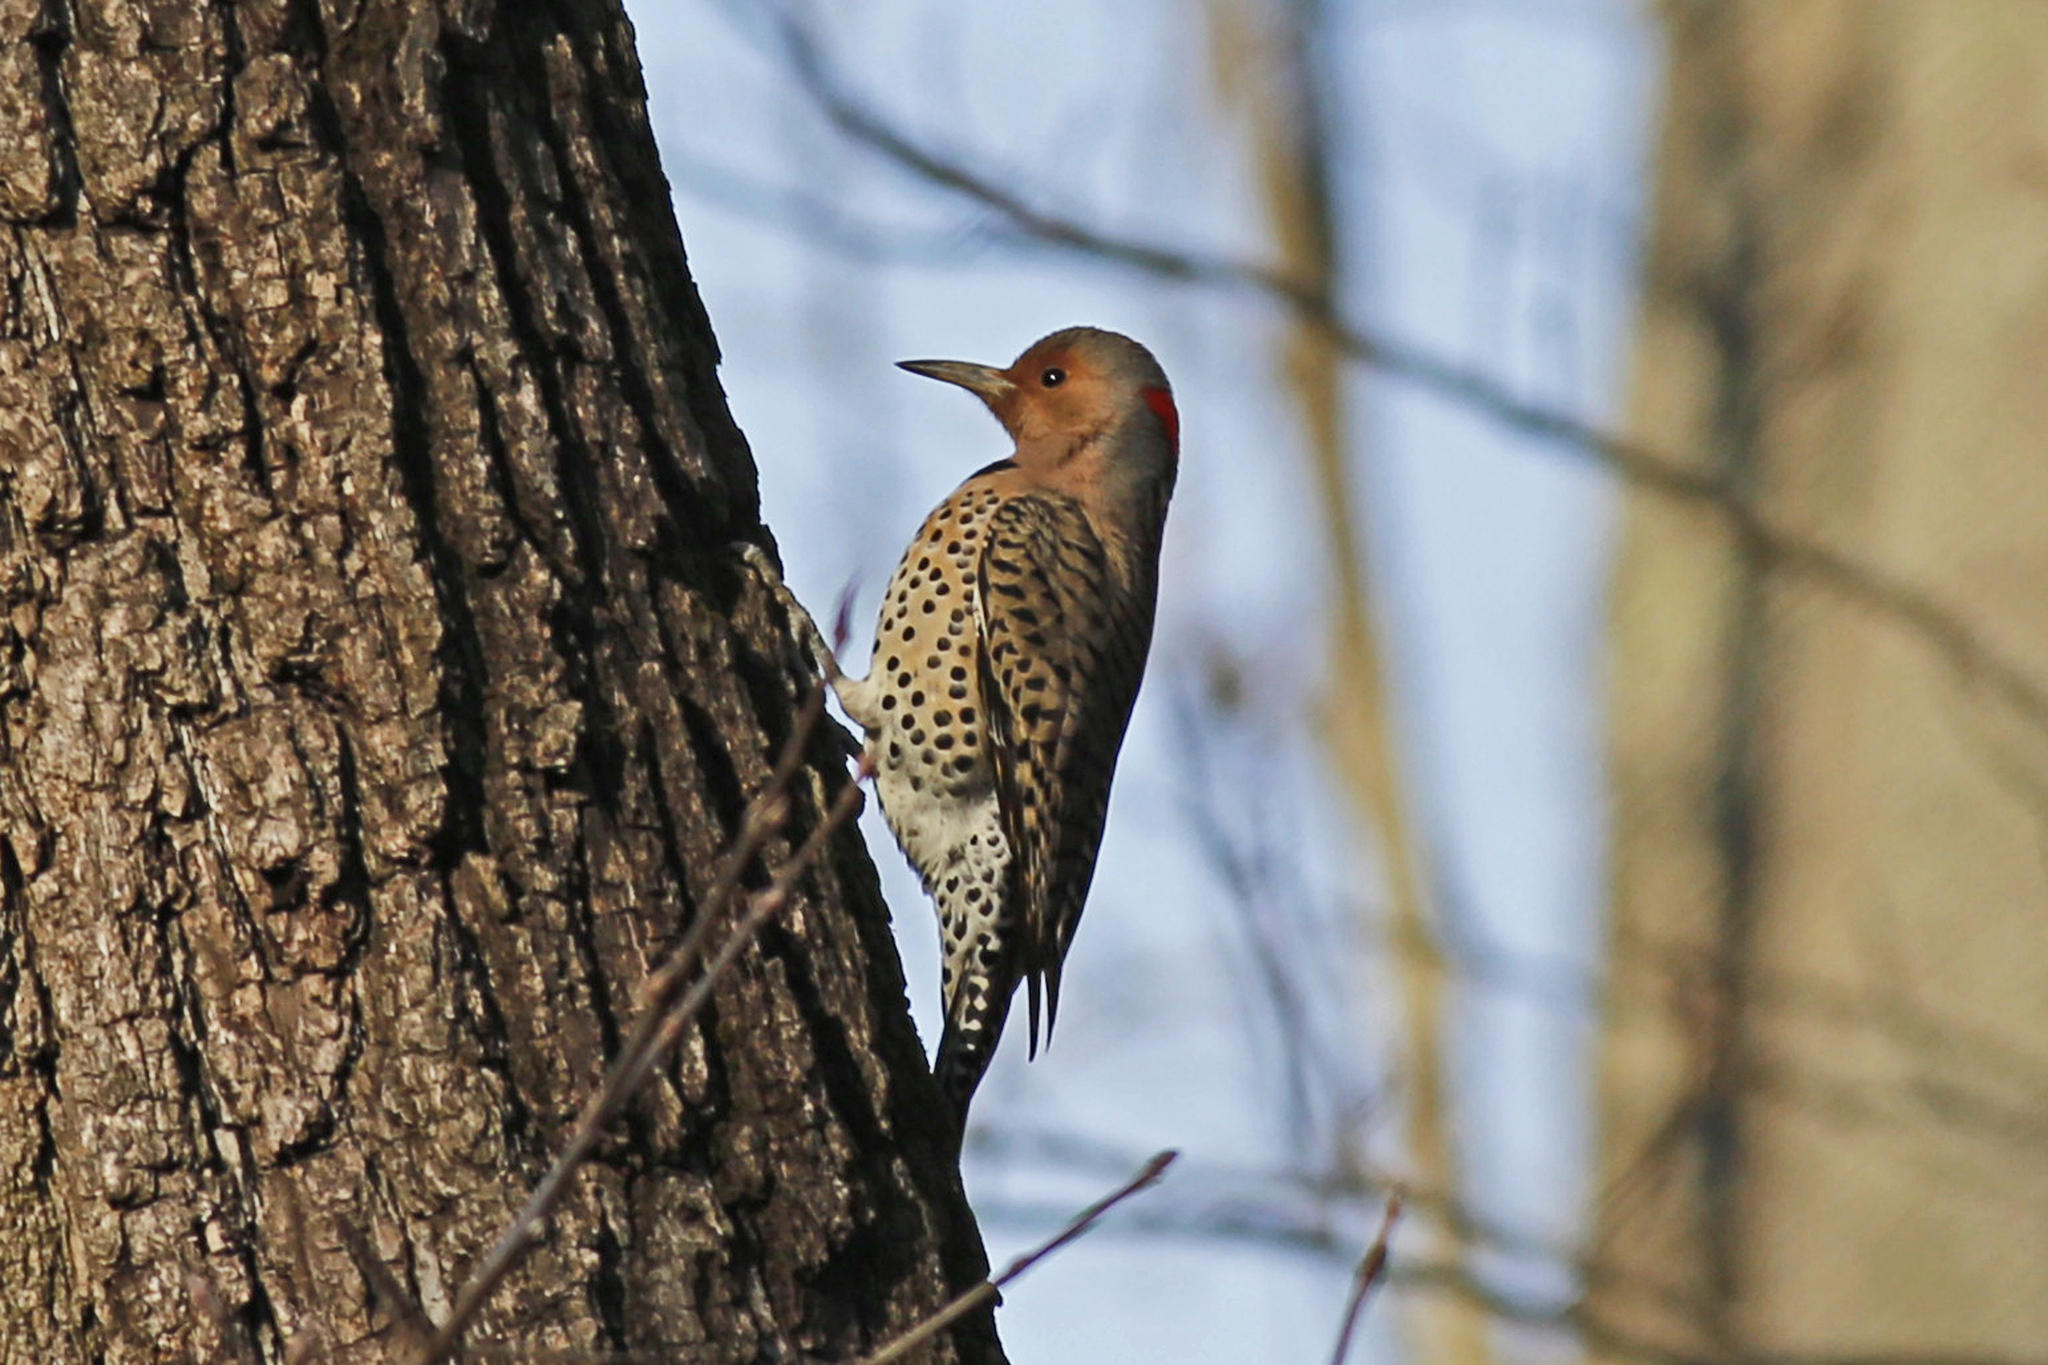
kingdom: Animalia
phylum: Chordata
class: Aves
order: Piciformes
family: Picidae
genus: Colaptes
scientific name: Colaptes auratus
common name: Northern flicker
